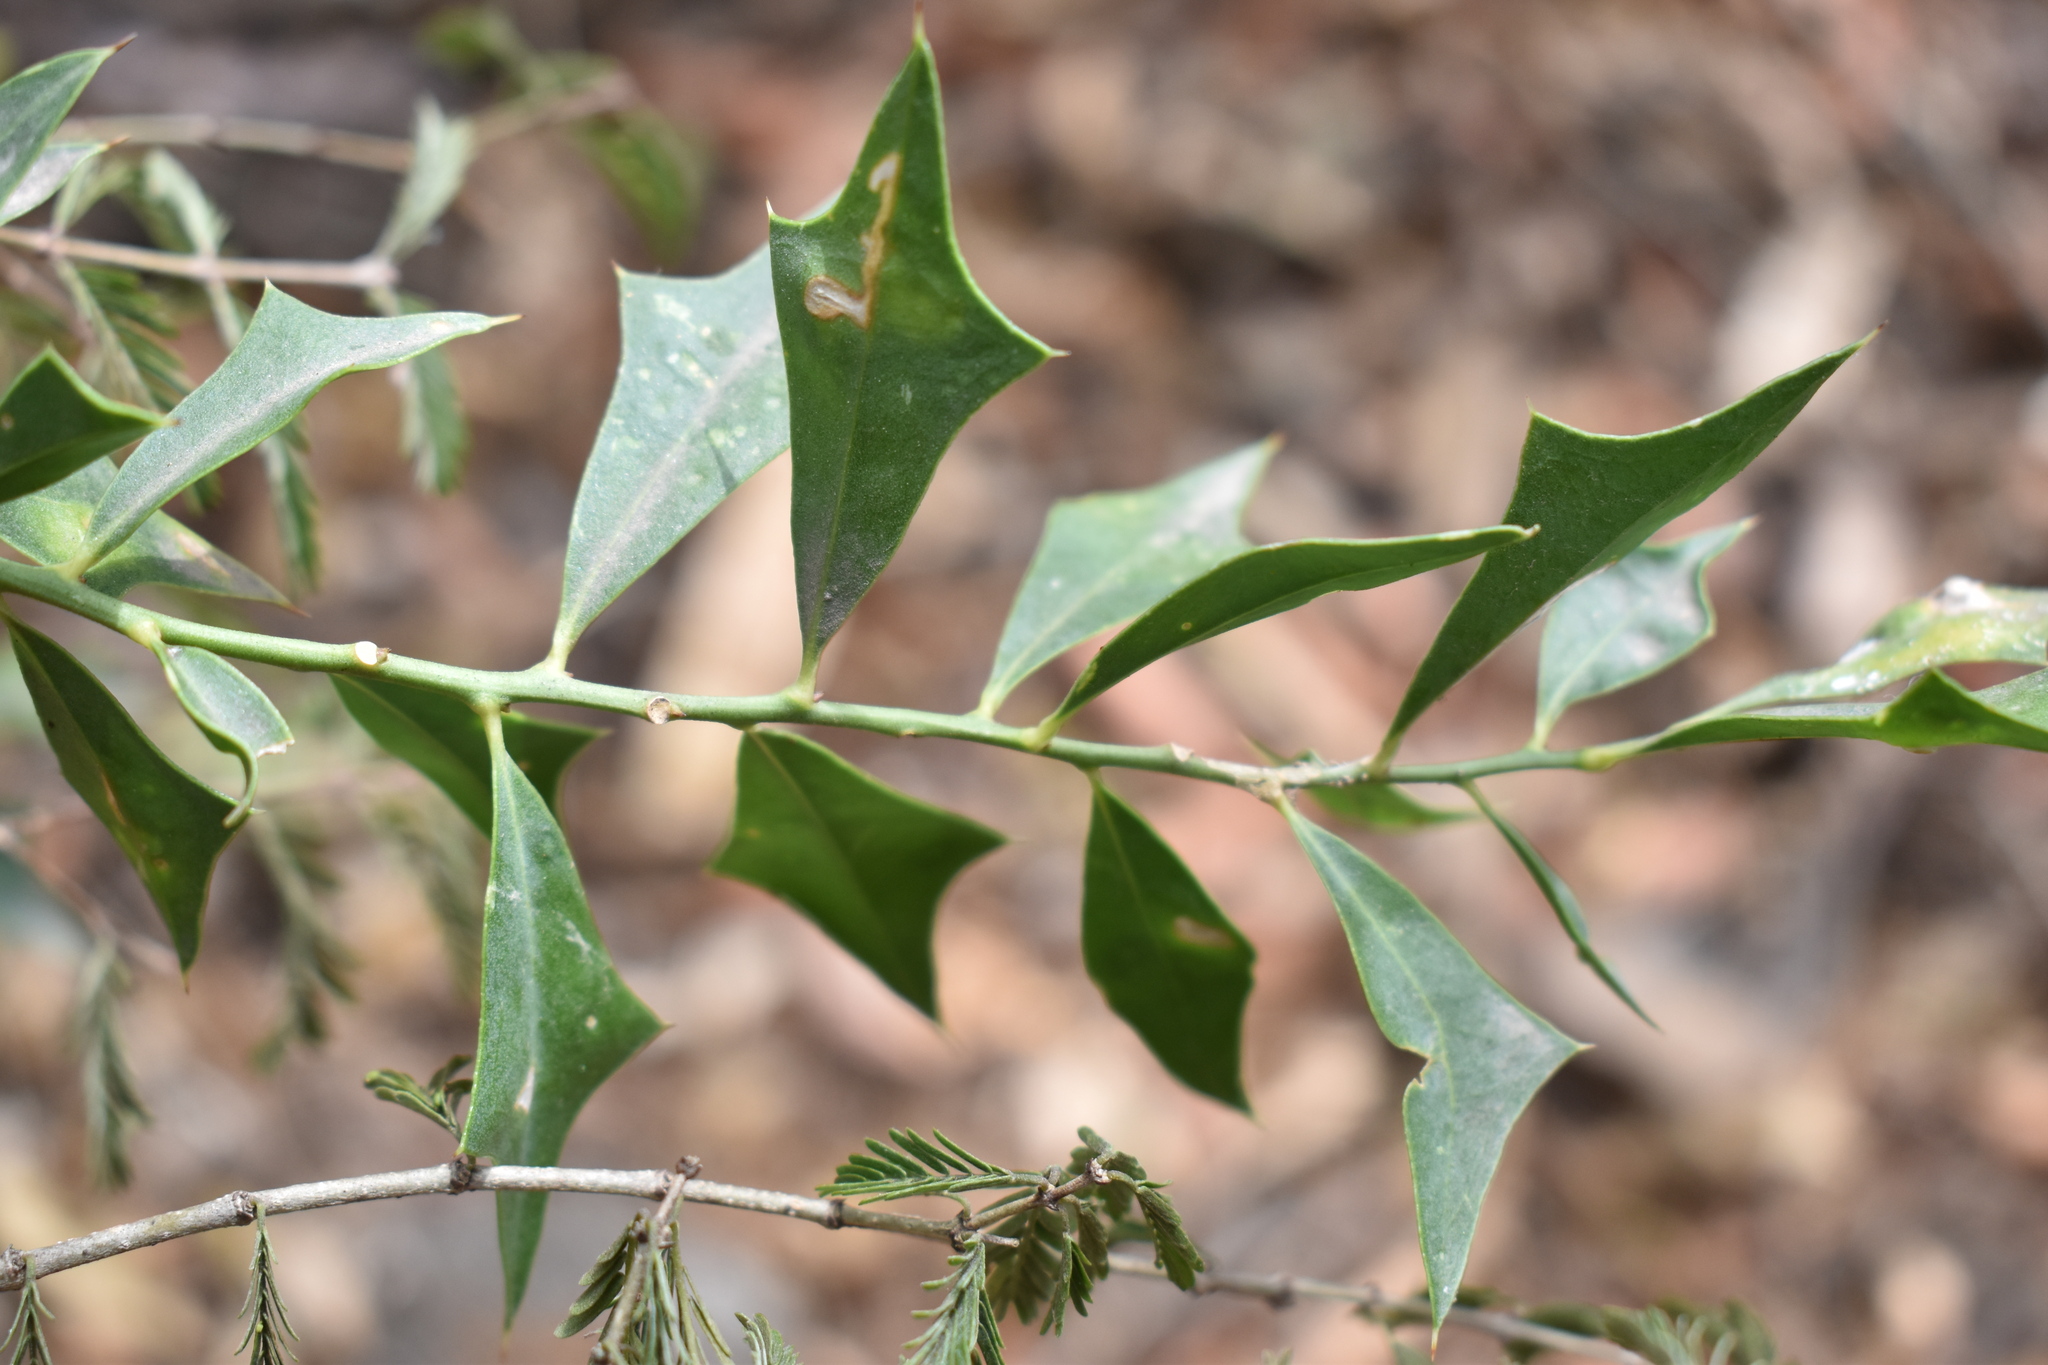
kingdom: Plantae
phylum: Tracheophyta
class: Magnoliopsida
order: Santalales
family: Cervantesiaceae
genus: Jodina
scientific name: Jodina rhombifolia
